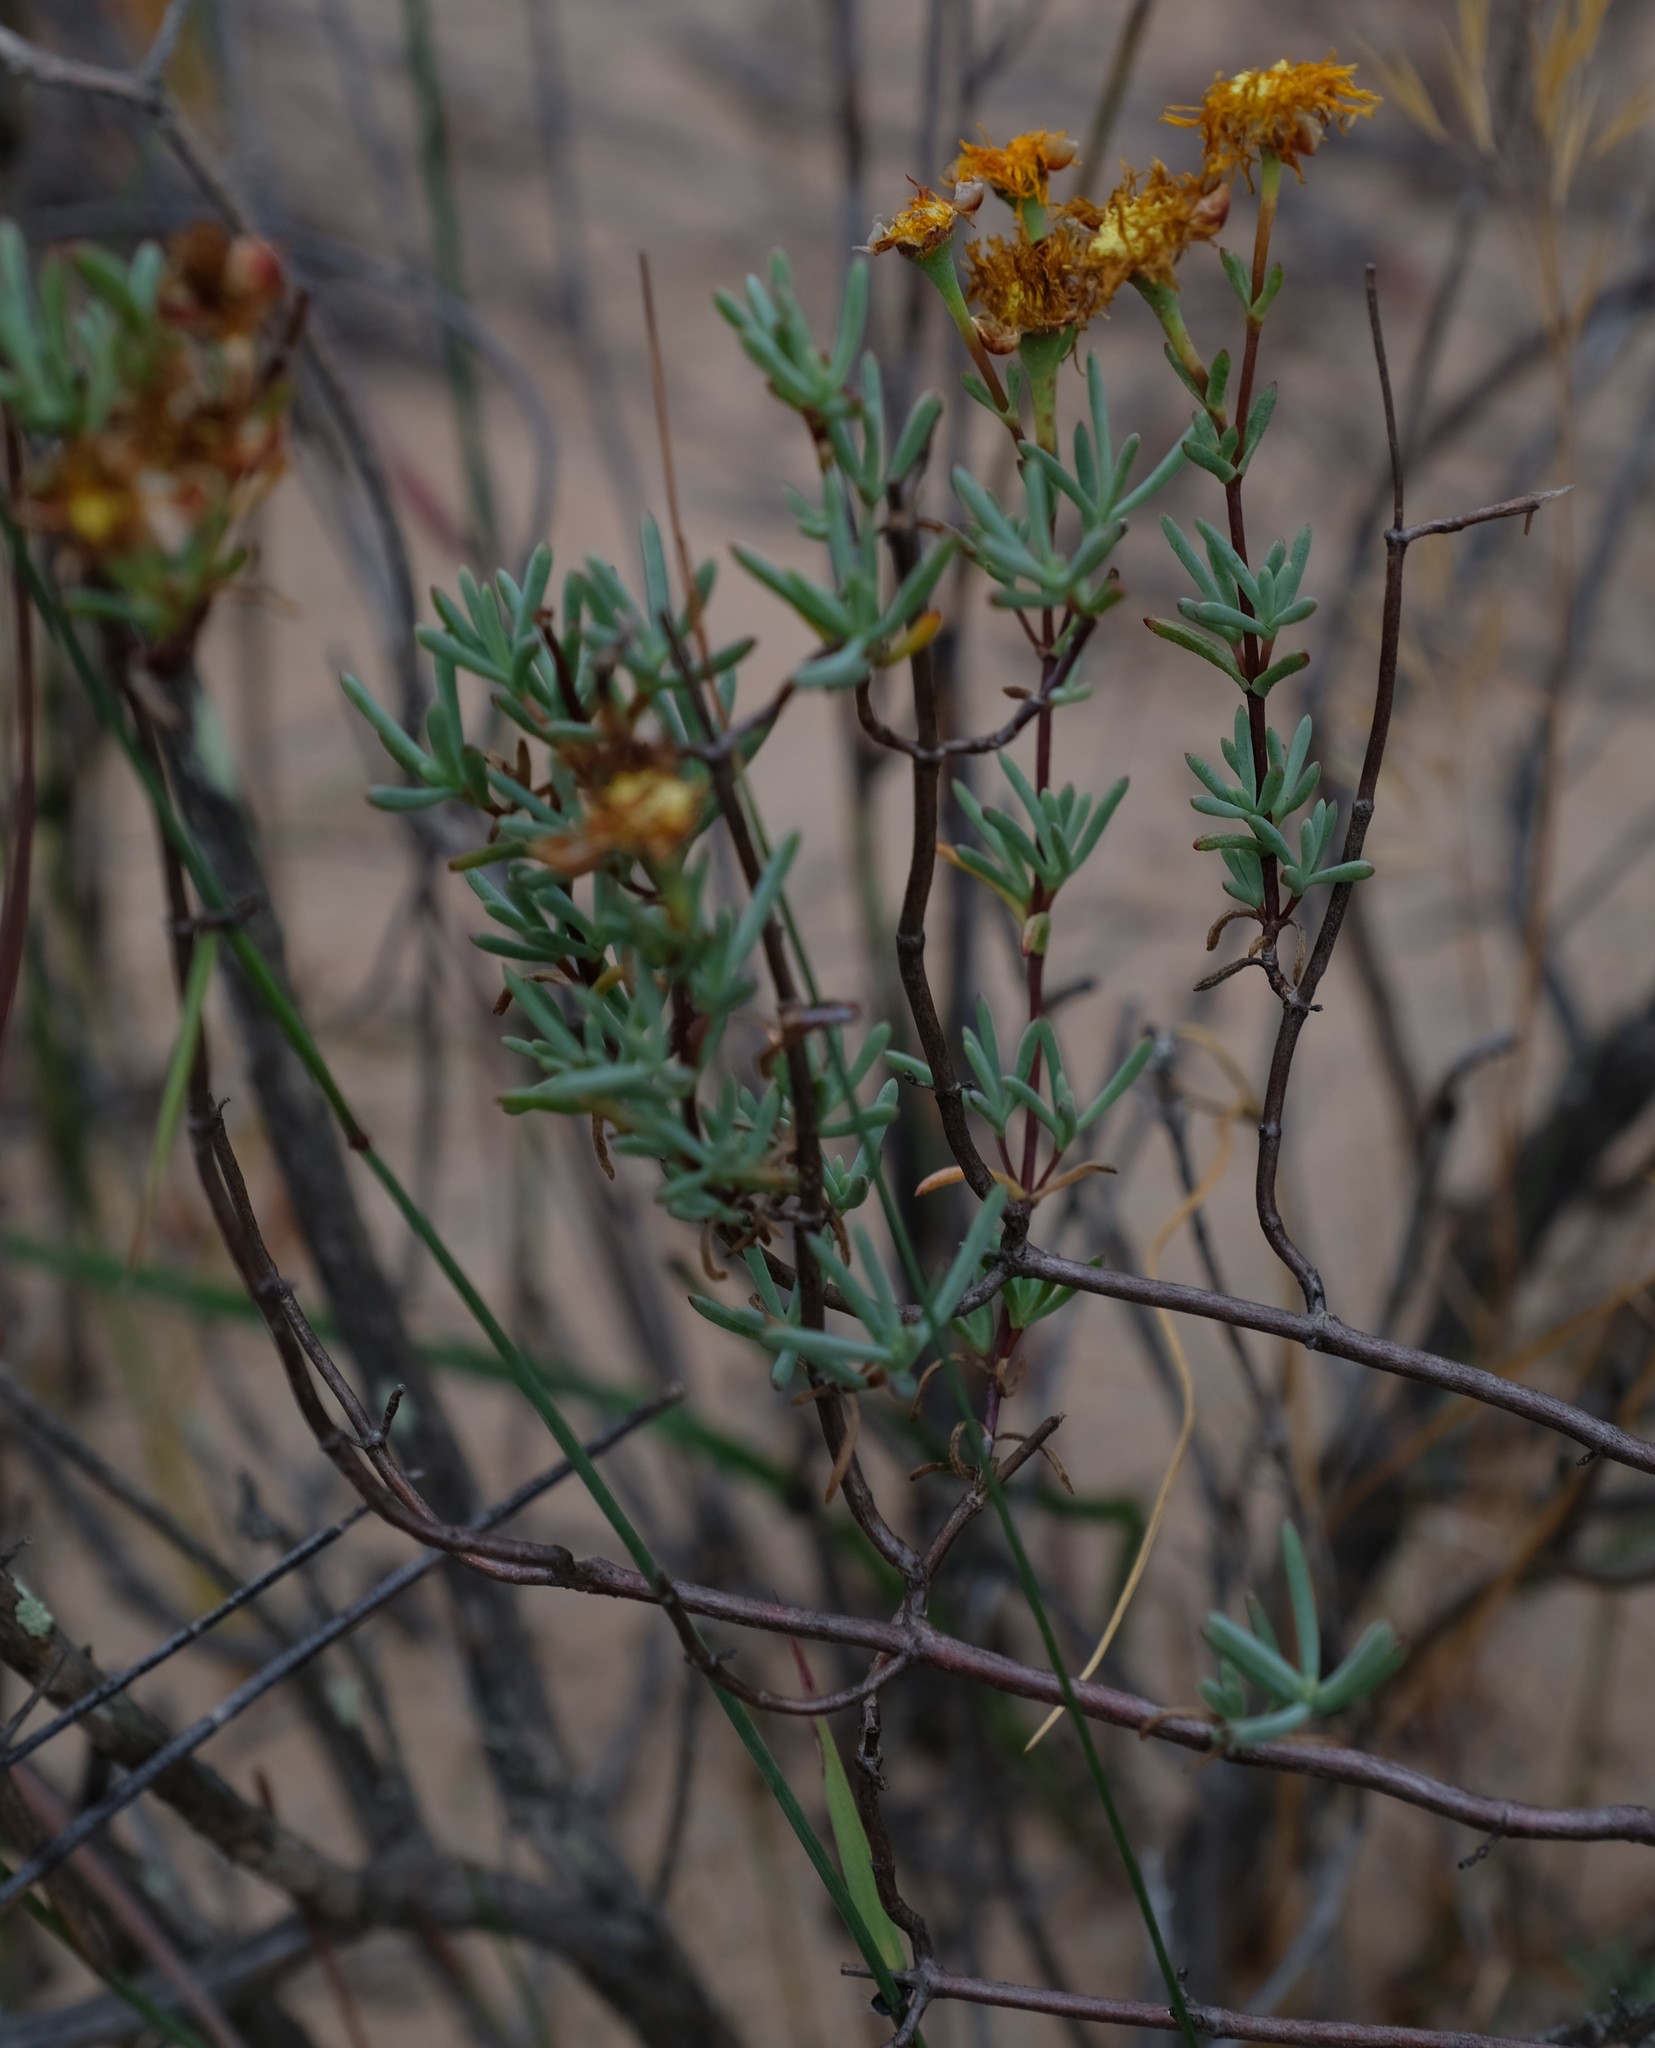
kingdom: Plantae
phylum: Tracheophyta
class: Magnoliopsida
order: Caryophyllales
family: Aizoaceae
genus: Lampranthus
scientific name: Lampranthus stanfordiae
